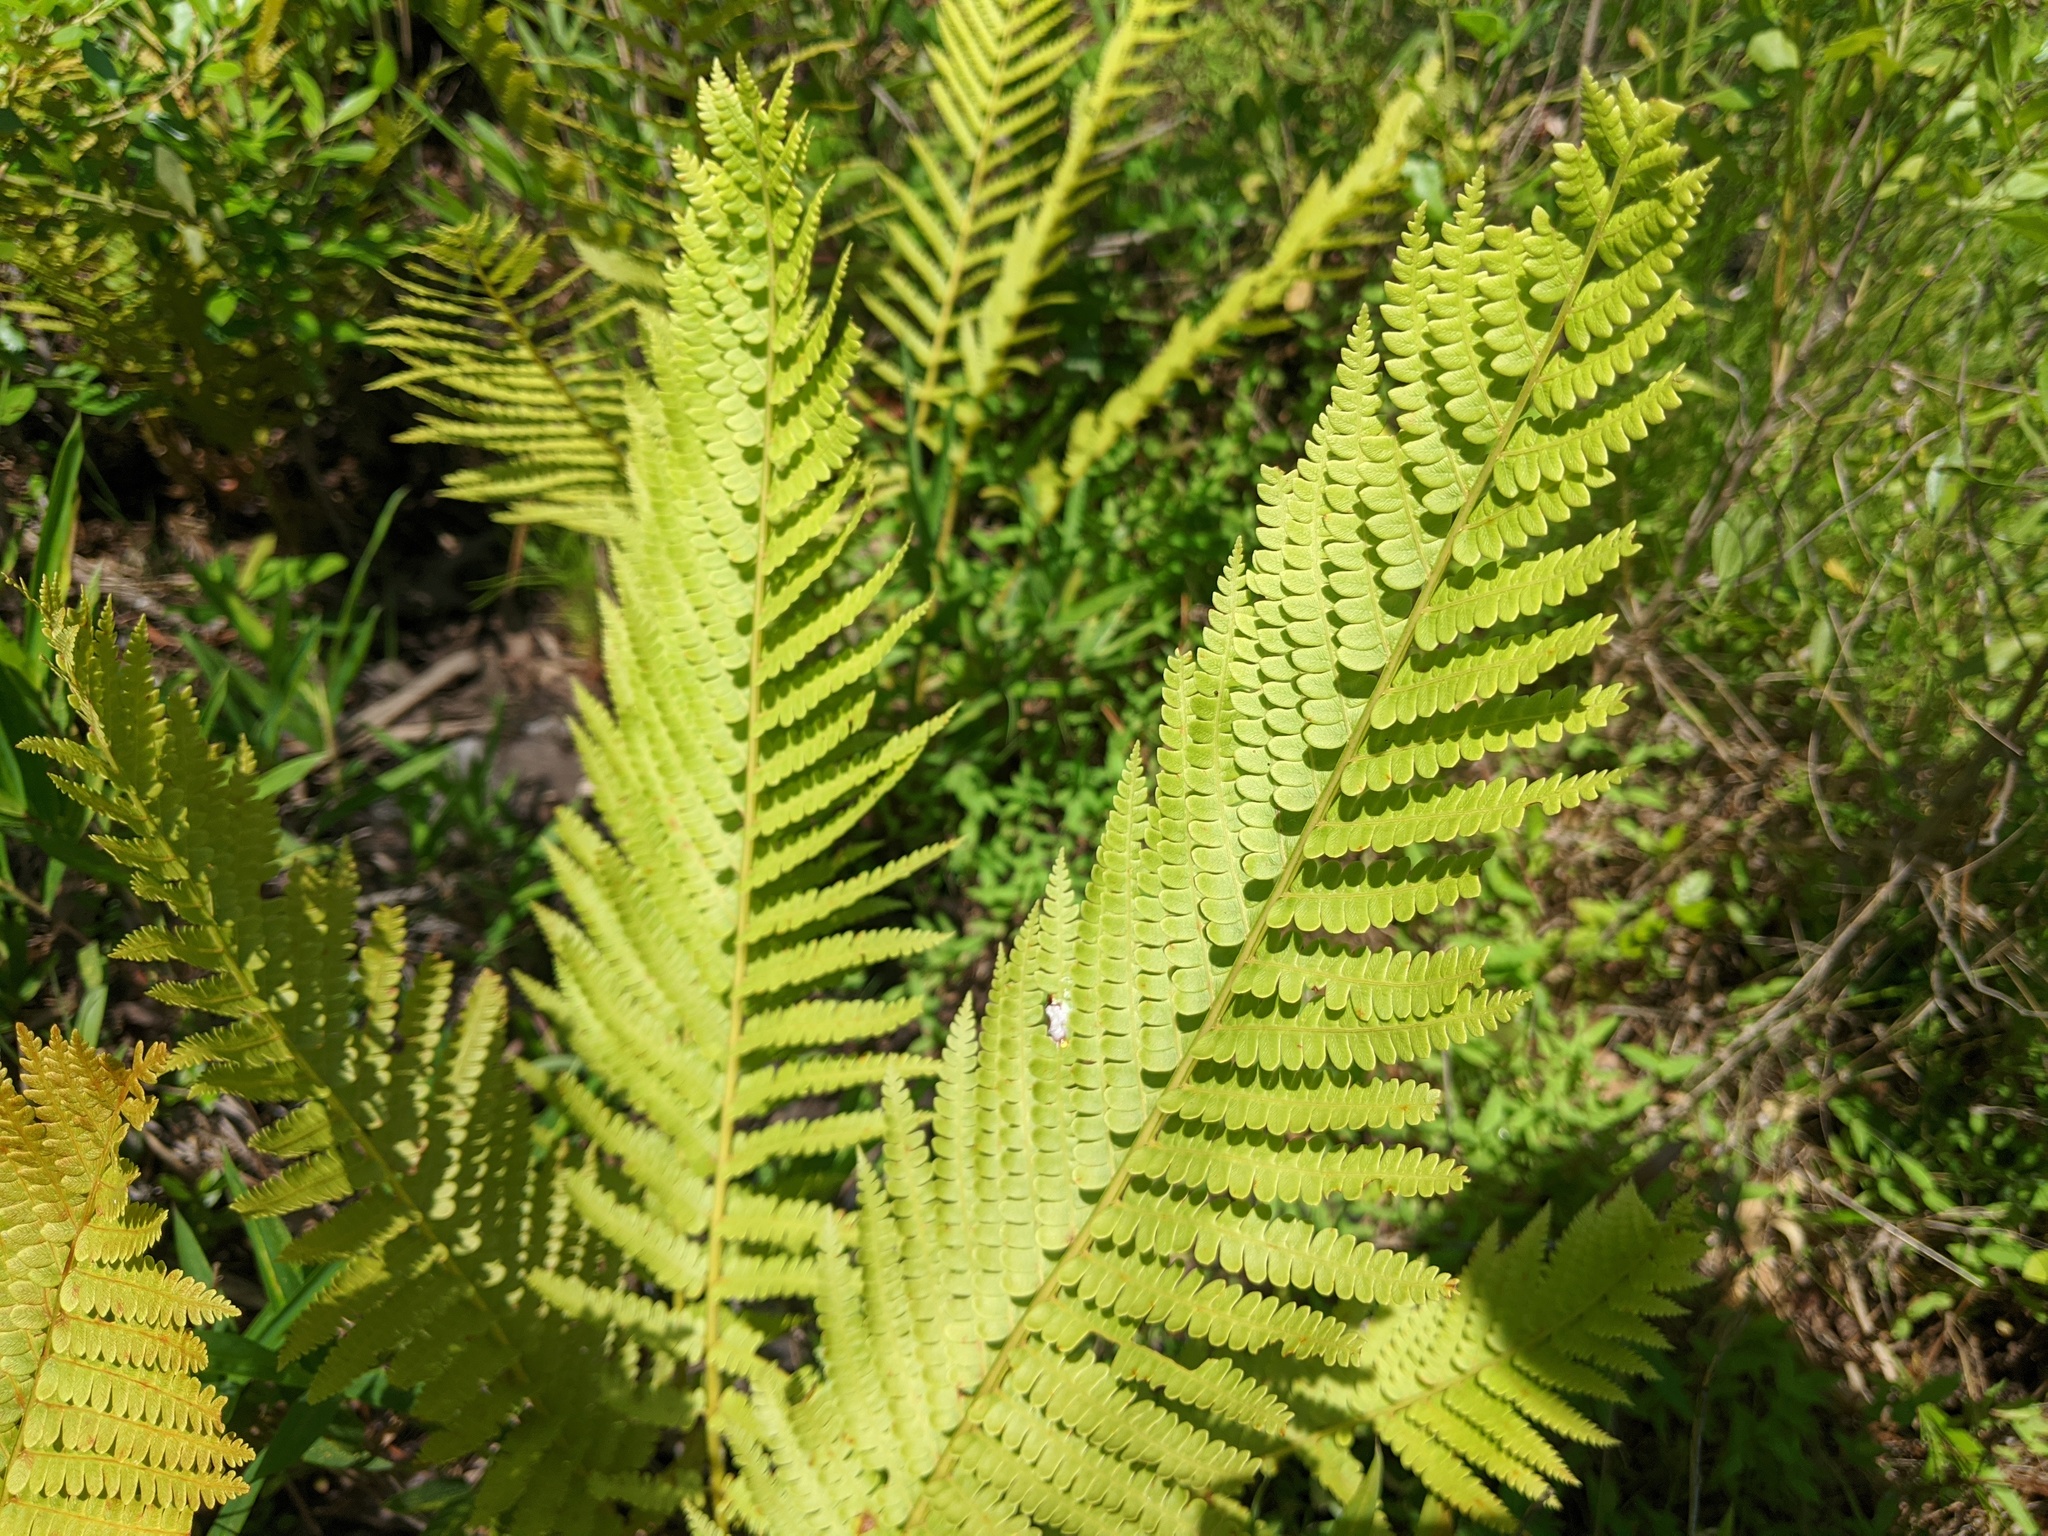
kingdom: Plantae
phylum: Tracheophyta
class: Polypodiopsida
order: Osmundales
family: Osmundaceae
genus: Osmundastrum
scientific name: Osmundastrum cinnamomeum
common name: Cinnamon fern
